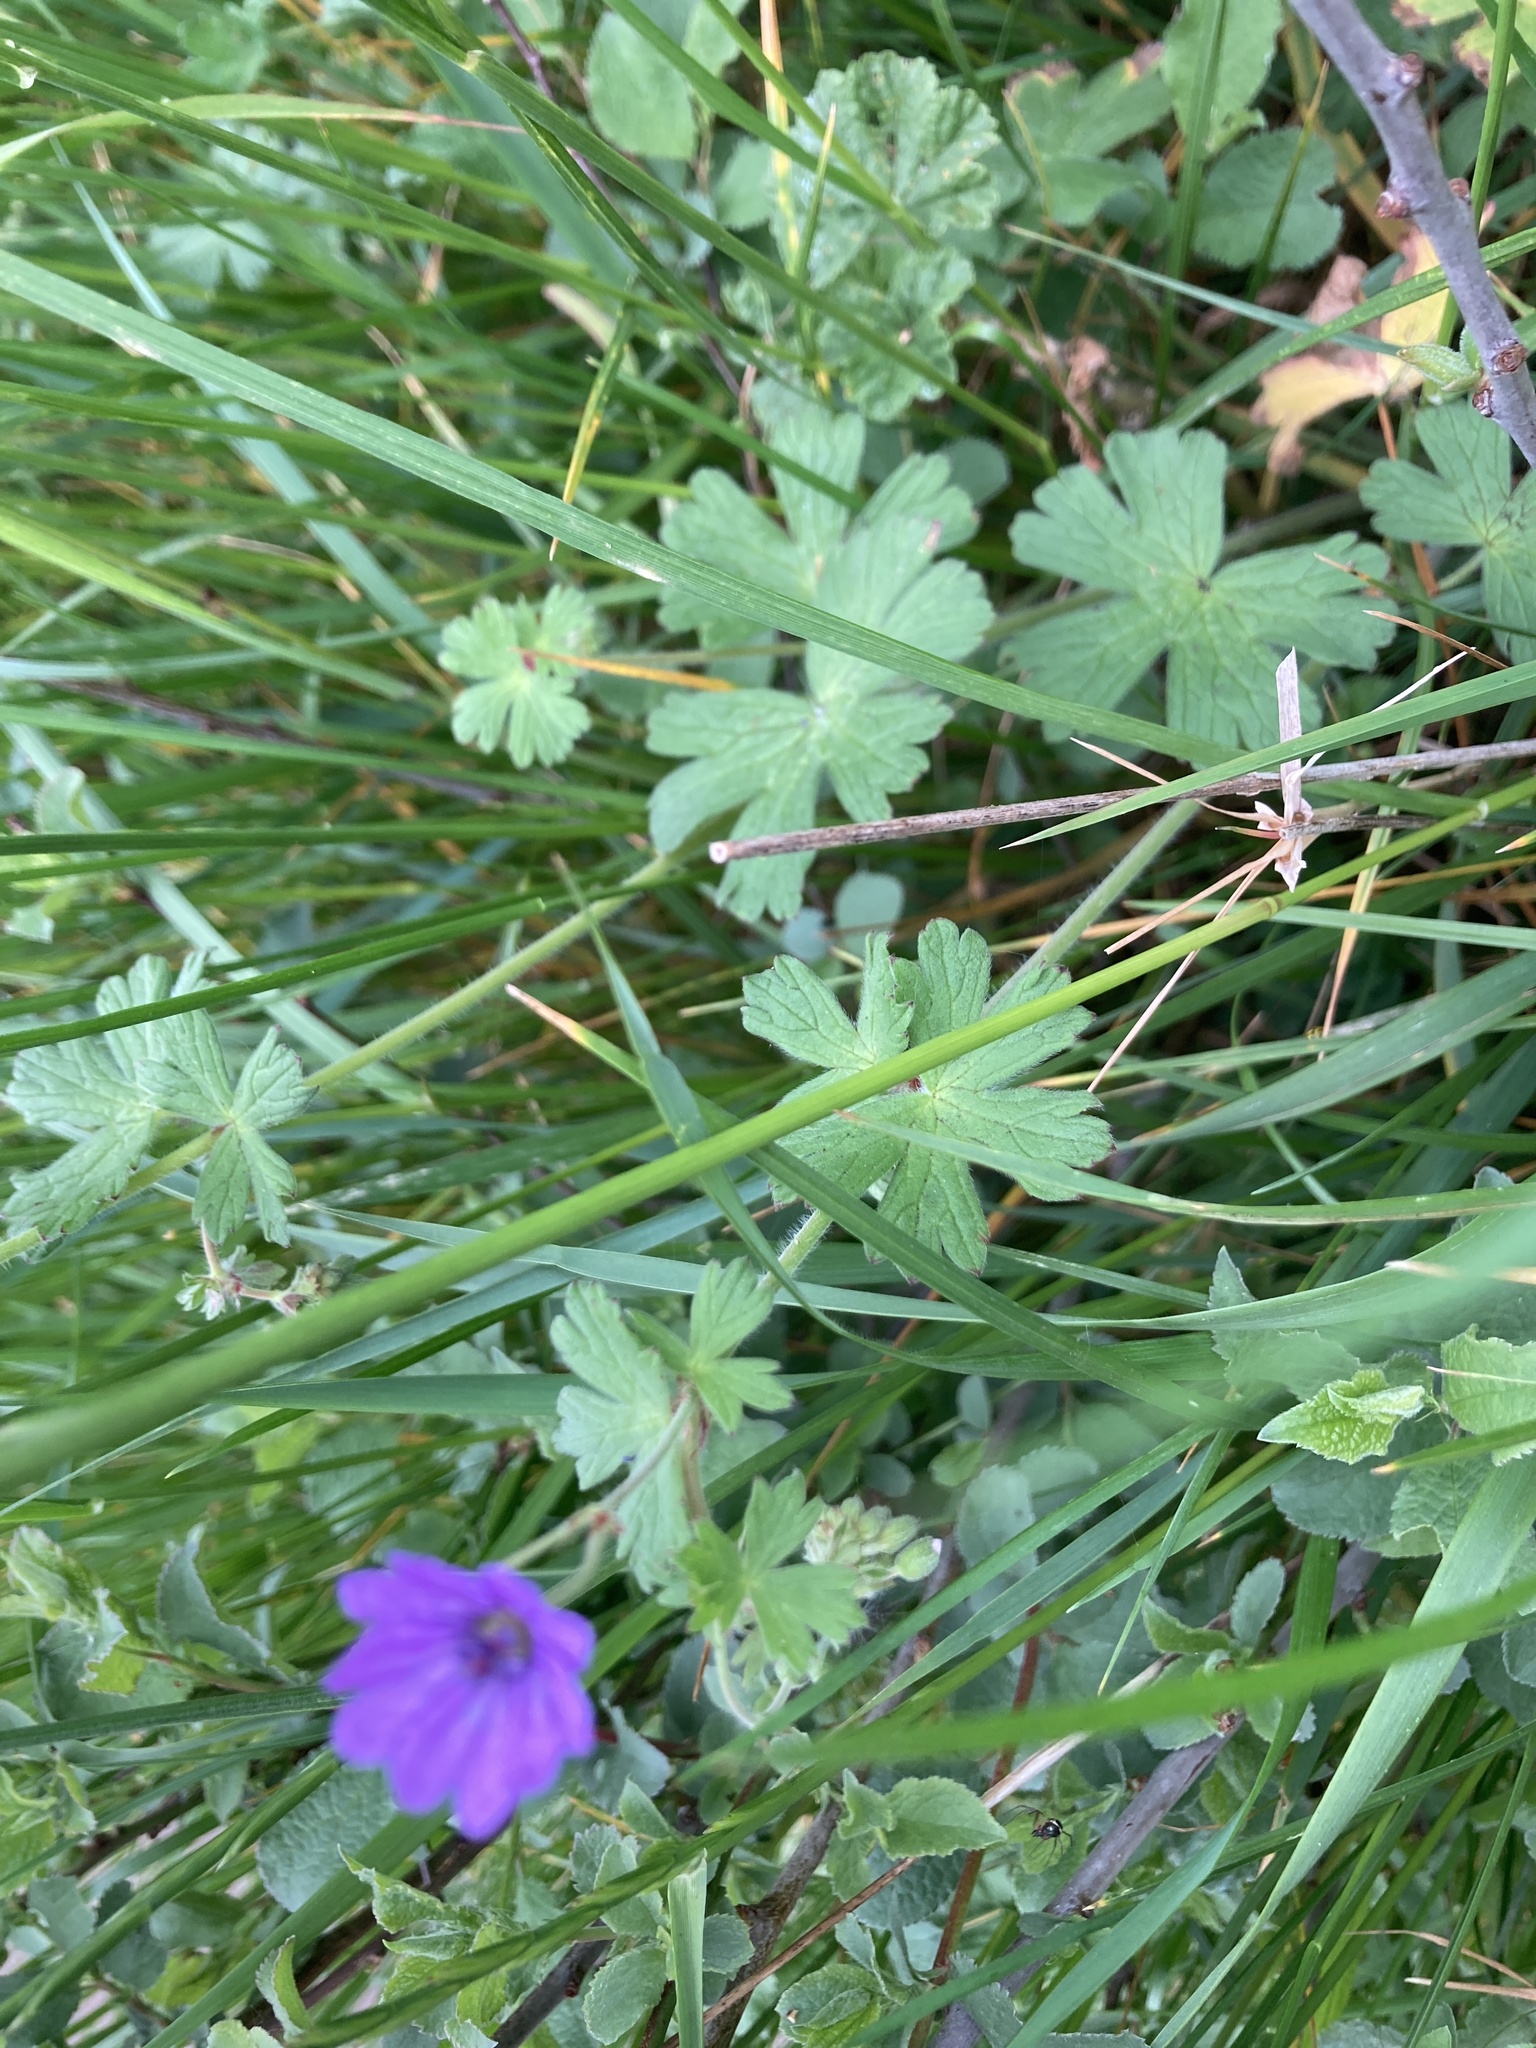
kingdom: Plantae
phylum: Tracheophyta
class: Magnoliopsida
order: Geraniales
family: Geraniaceae
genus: Geranium
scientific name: Geranium pyrenaicum
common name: Hedgerow crane's-bill
